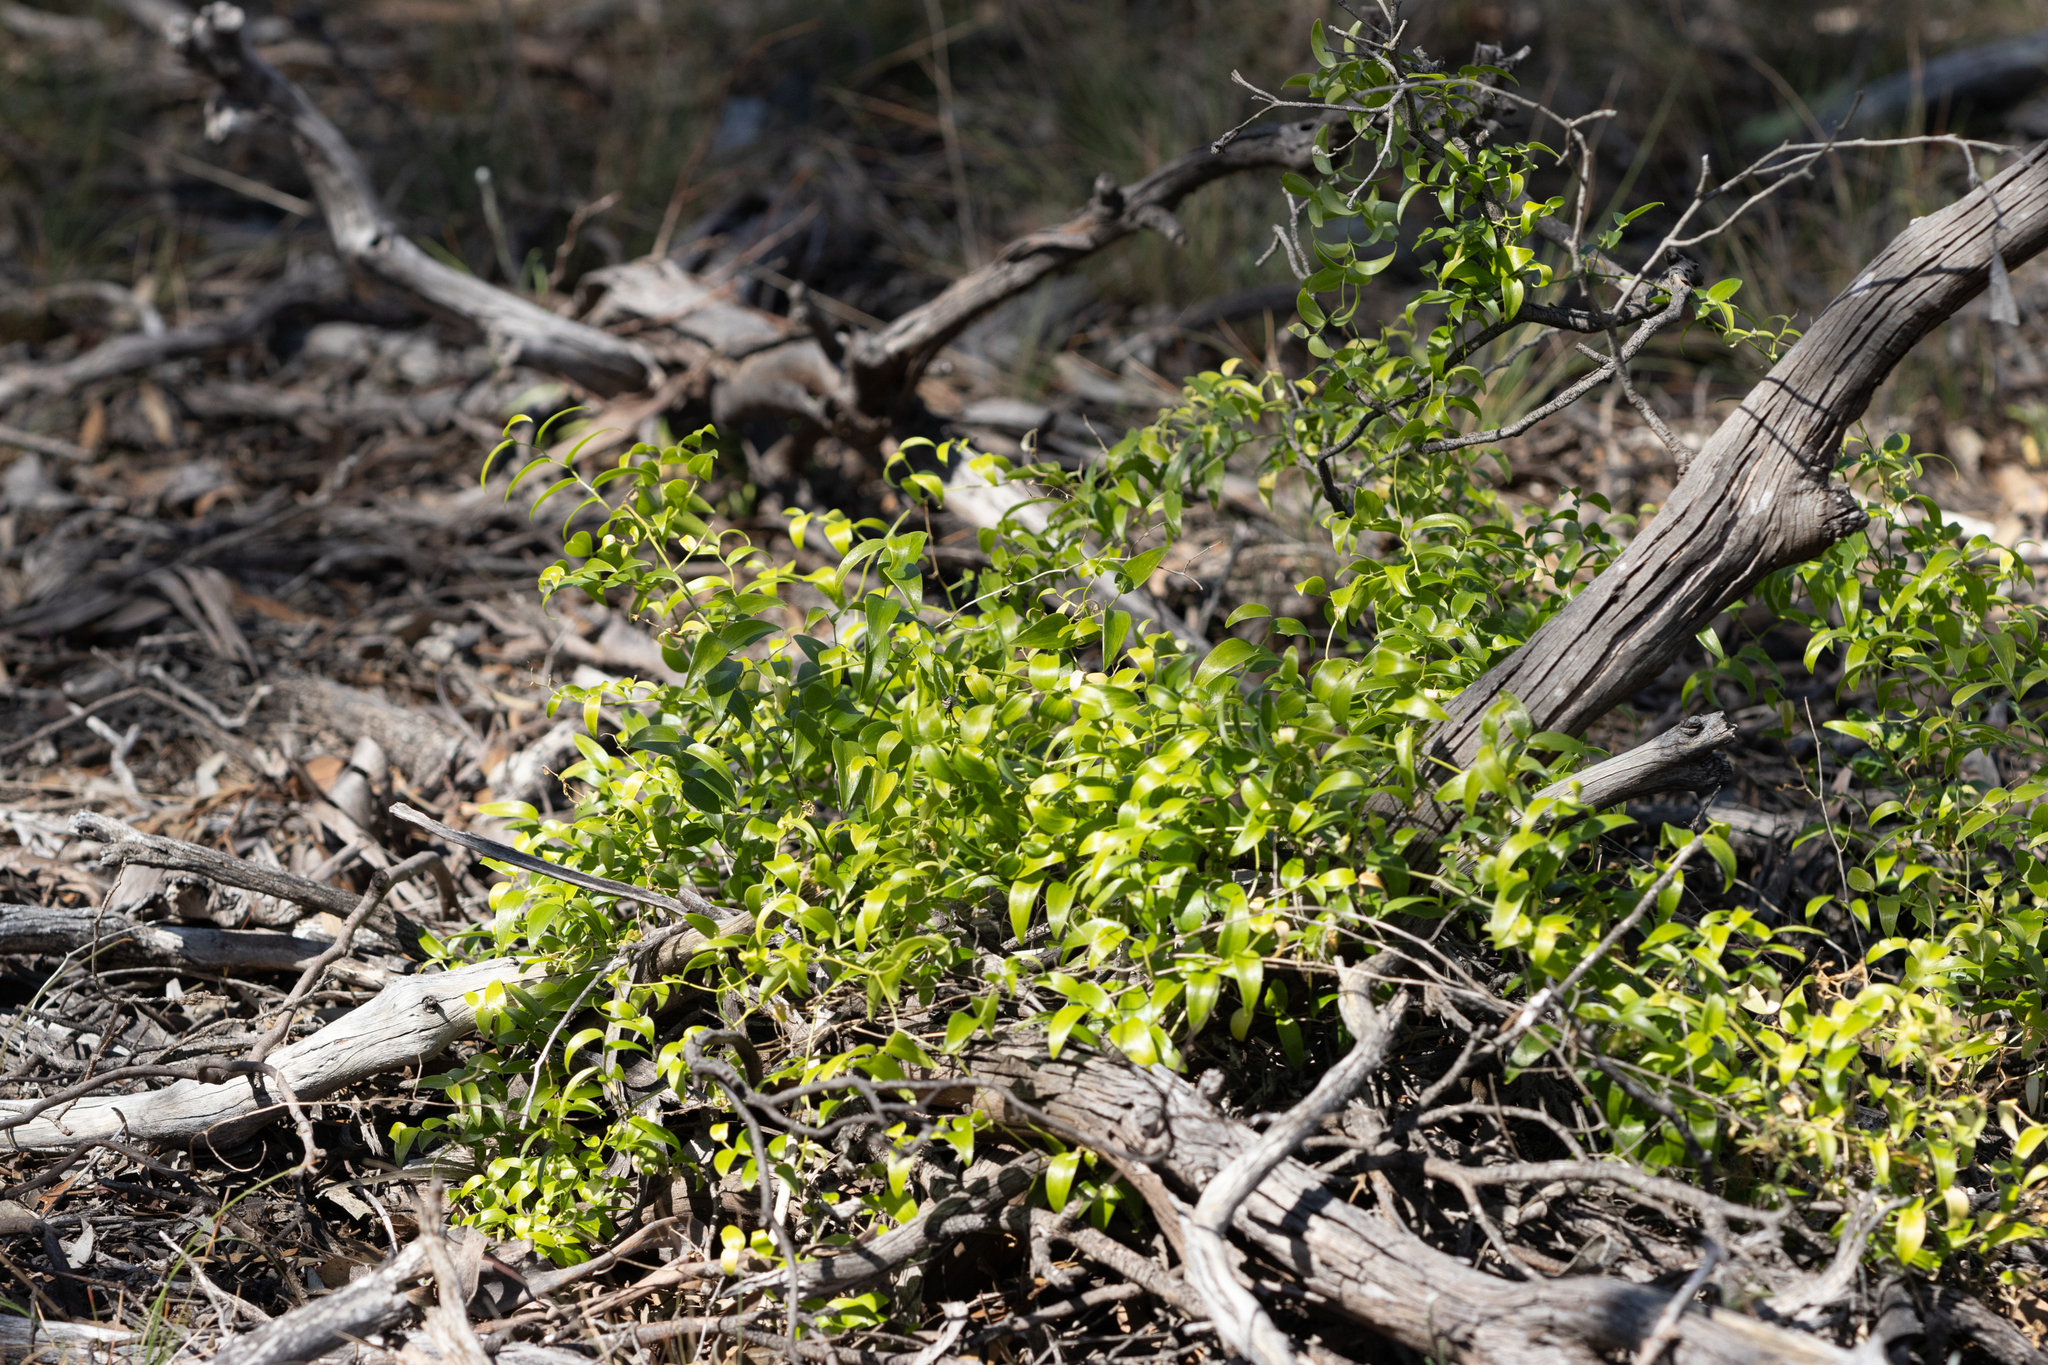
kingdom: Plantae
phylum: Tracheophyta
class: Liliopsida
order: Asparagales
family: Asparagaceae
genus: Asparagus
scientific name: Asparagus asparagoides
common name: African asparagus fern
